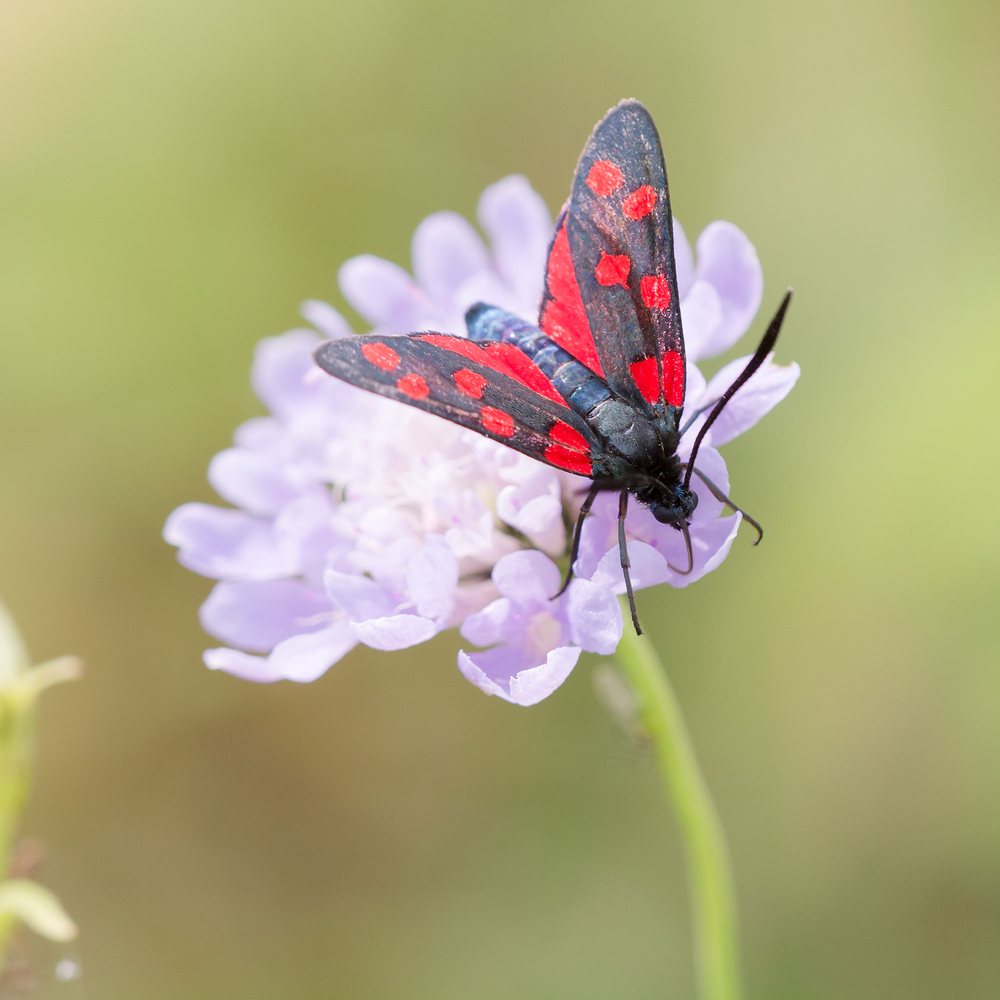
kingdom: Animalia
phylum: Arthropoda
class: Insecta
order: Lepidoptera
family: Zygaenidae
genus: Zygaena
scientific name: Zygaena transalpina
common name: Southern six spot burnet
